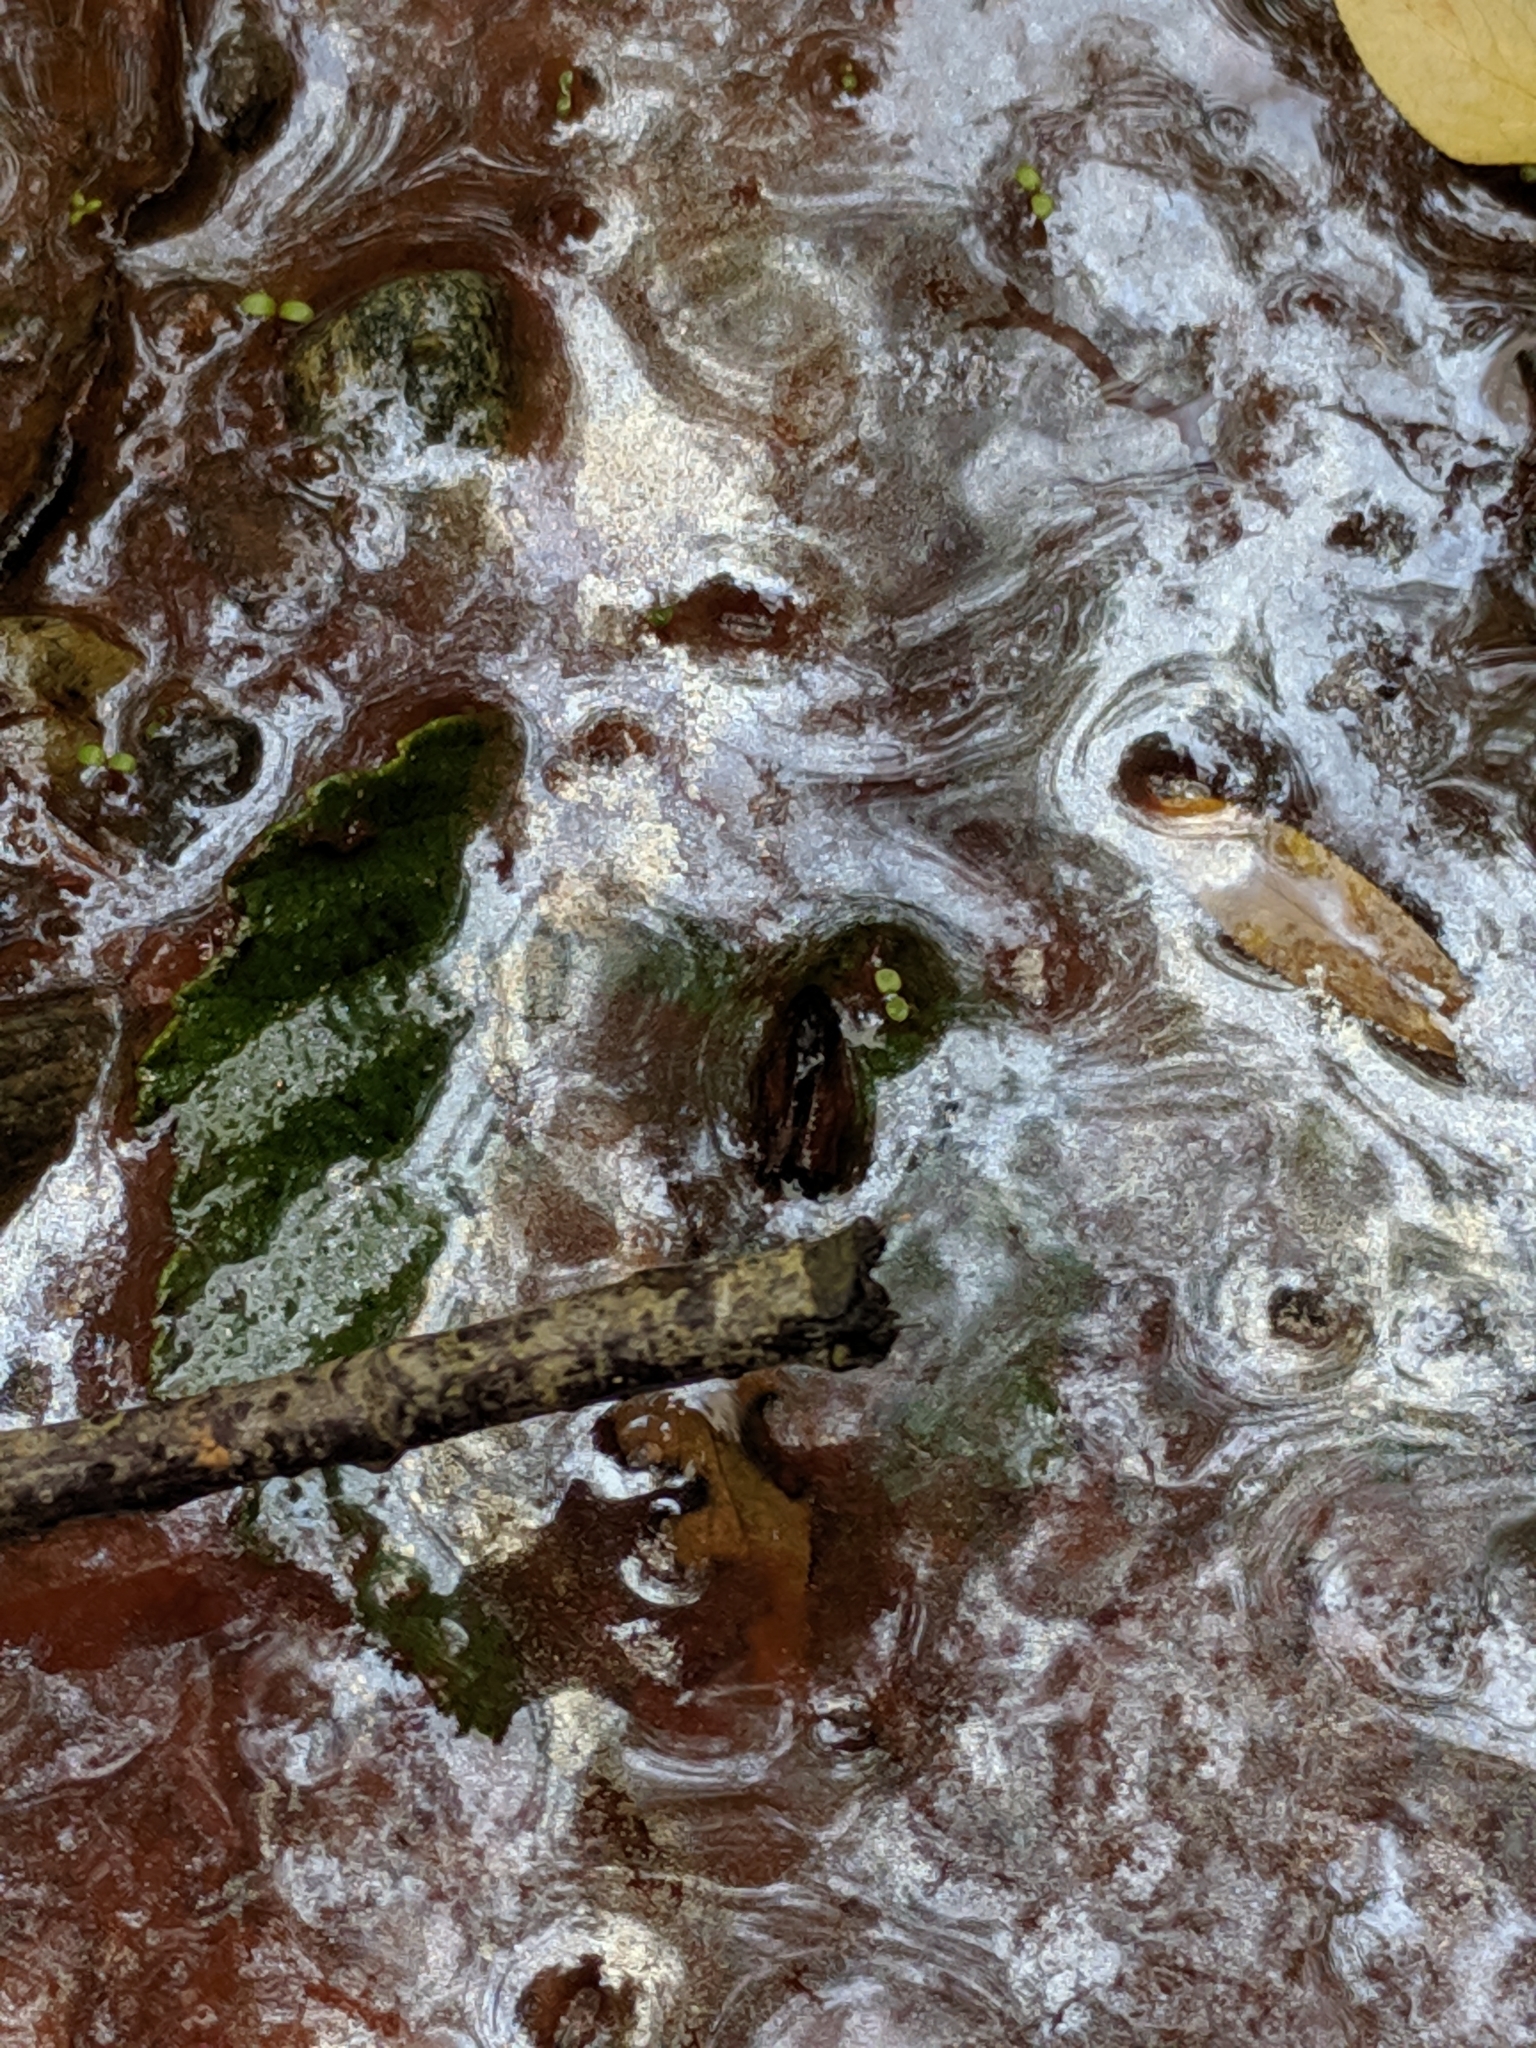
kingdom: Bacteria
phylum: Proteobacteria
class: Gammaproteobacteria
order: Burkholderiales
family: Burkholderiaceae
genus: Leptothrix
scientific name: Leptothrix
